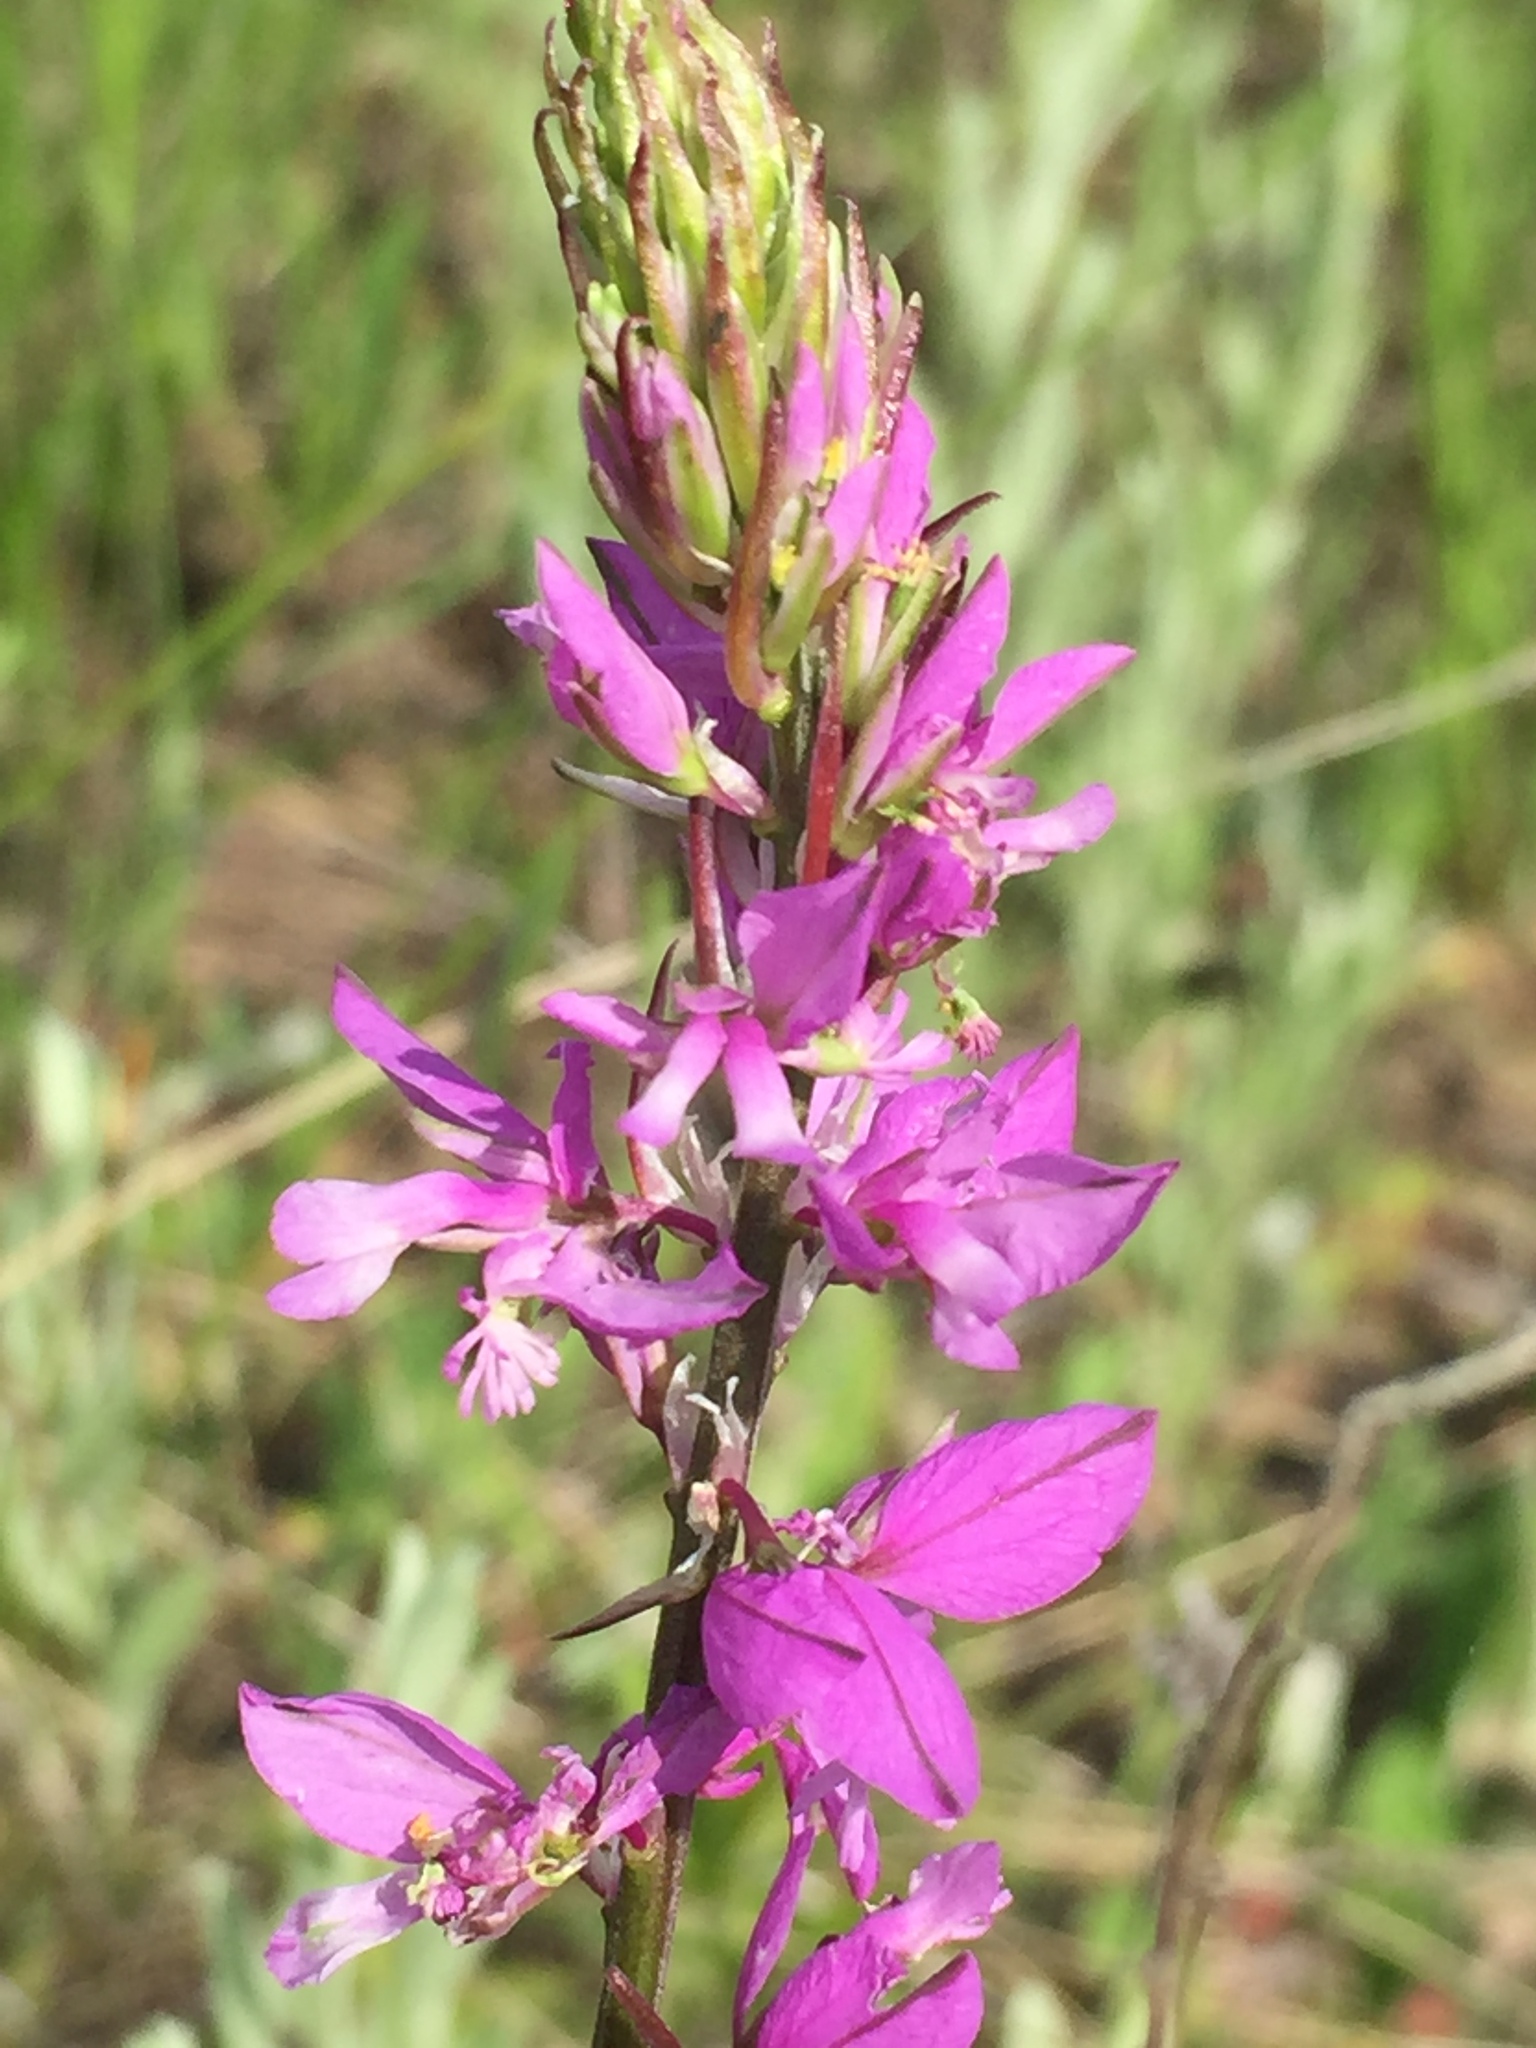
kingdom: Plantae
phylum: Tracheophyta
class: Magnoliopsida
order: Fabales
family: Polygalaceae
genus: Polygala
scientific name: Polygala nicaeensis
